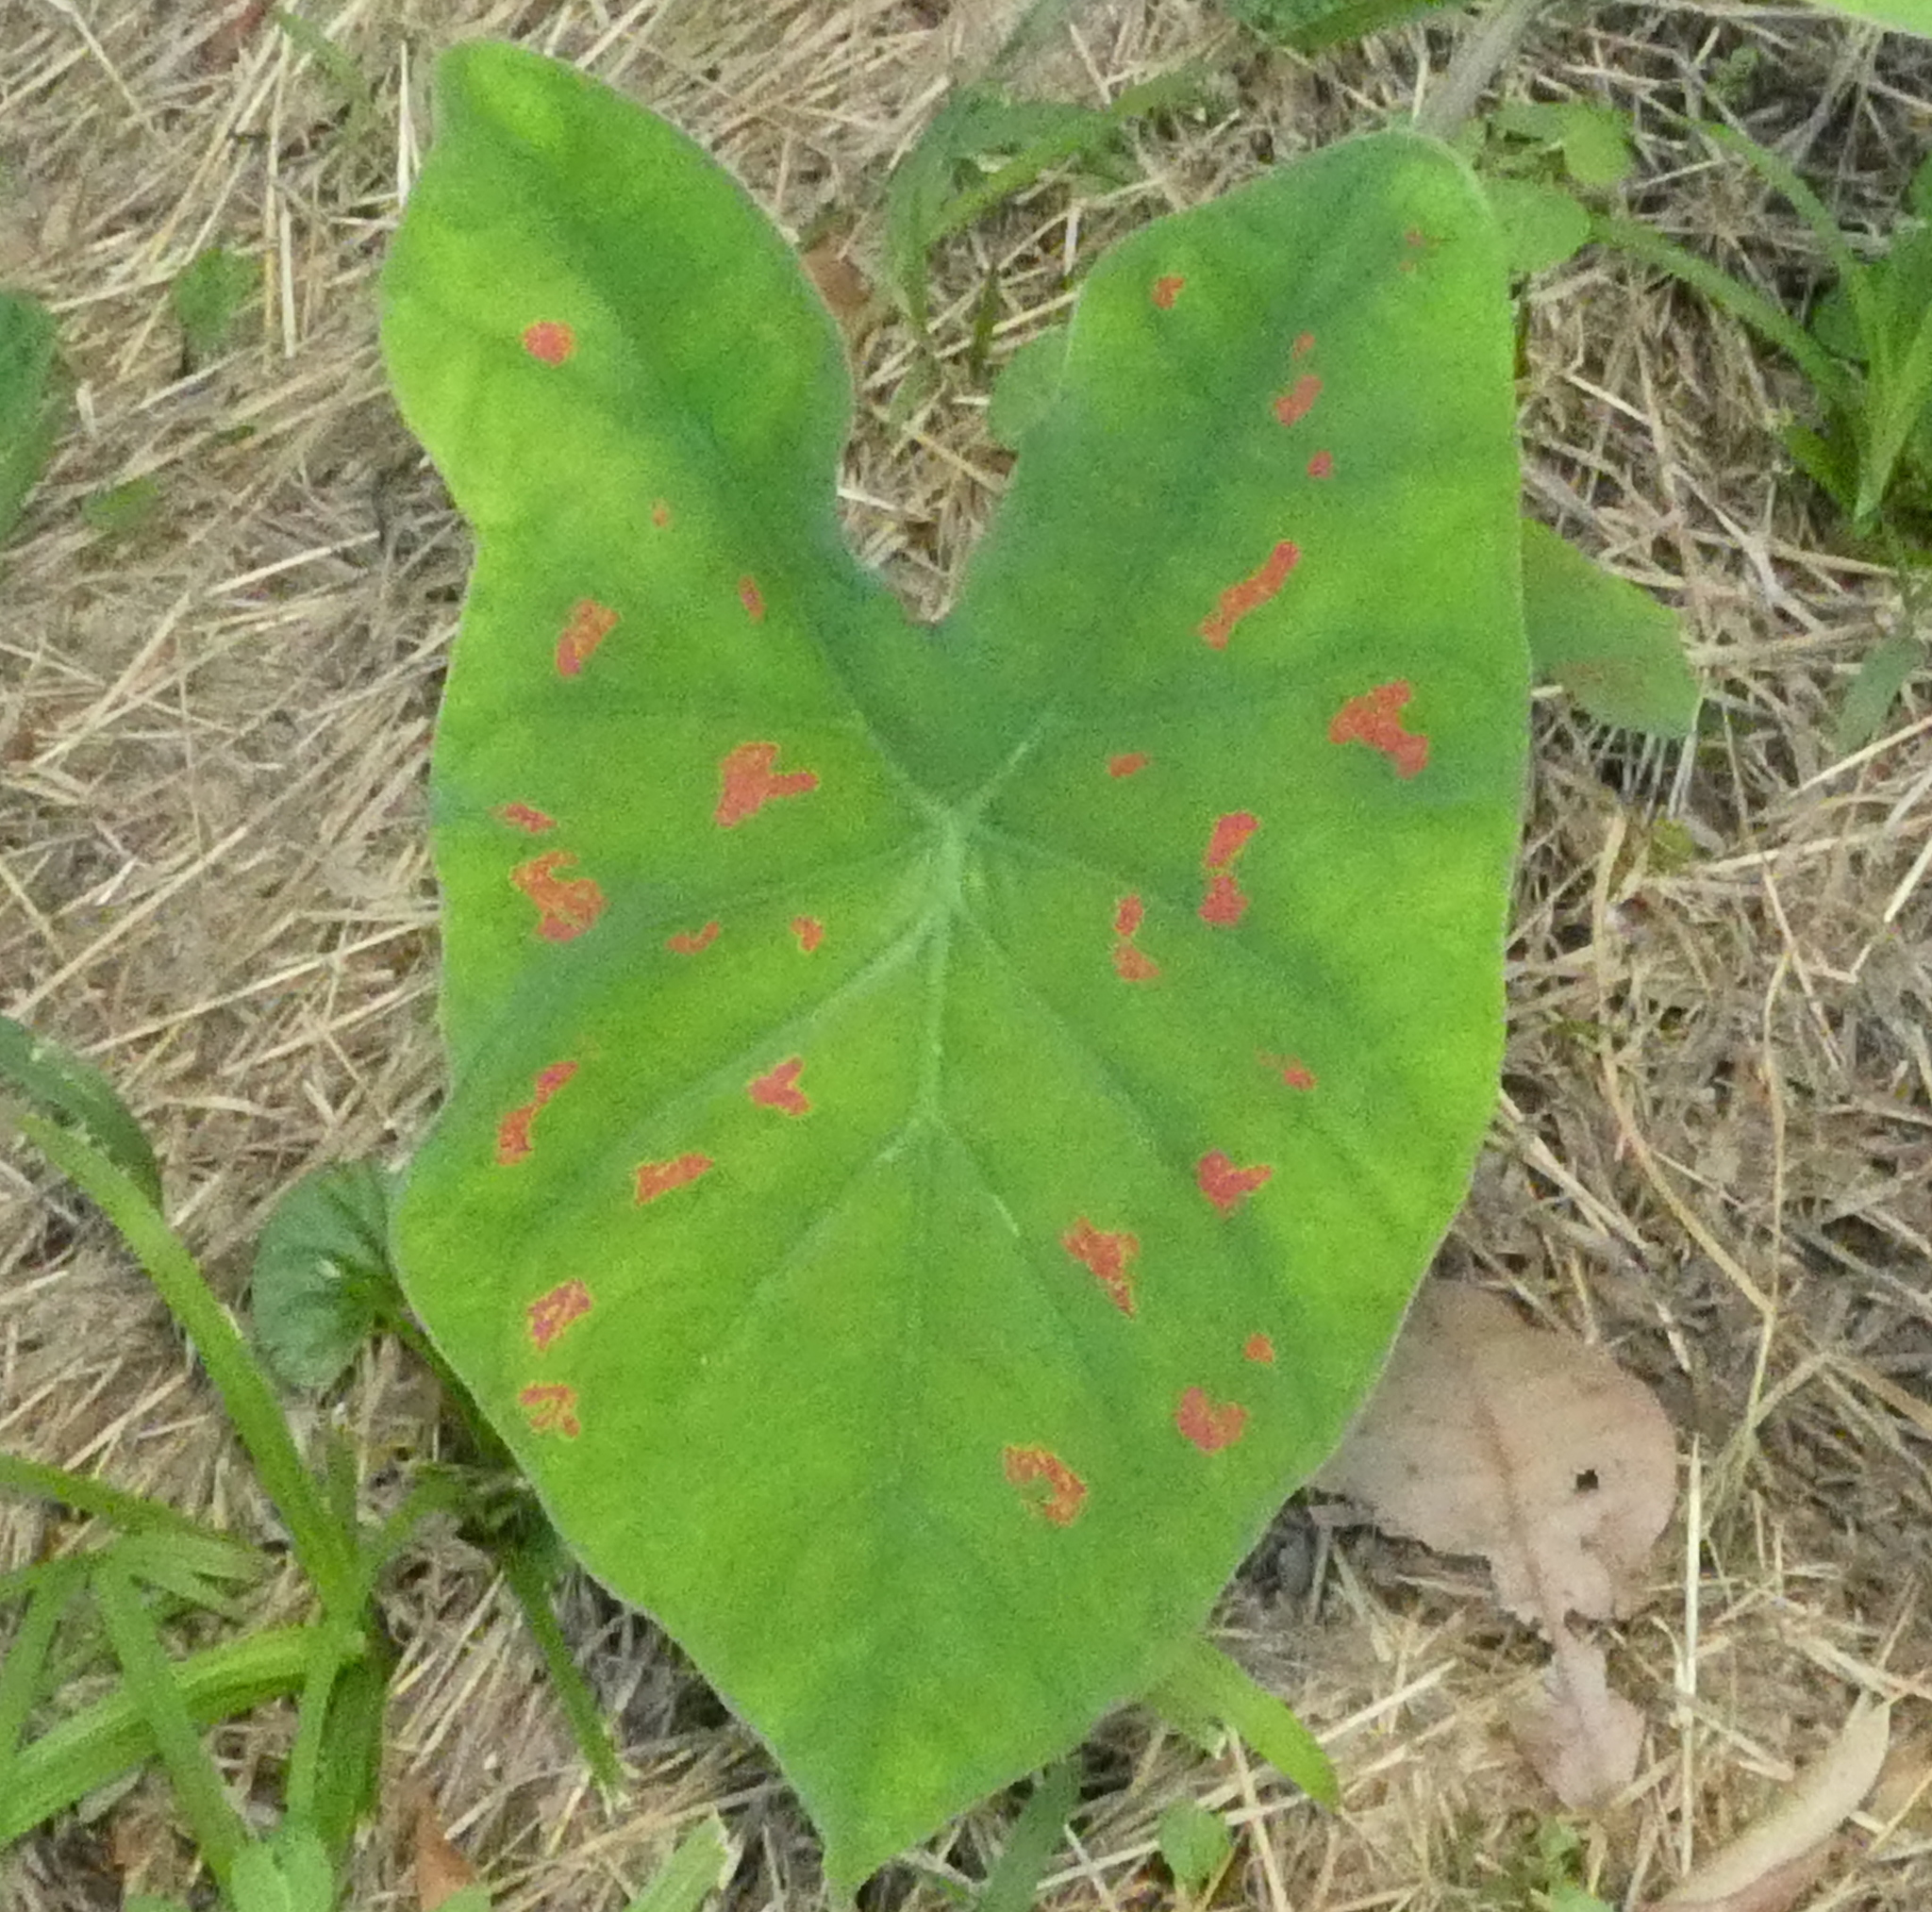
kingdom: Plantae
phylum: Tracheophyta
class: Liliopsida
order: Alismatales
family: Araceae
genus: Caladium
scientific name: Caladium bicolor
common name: Artist's pallet
